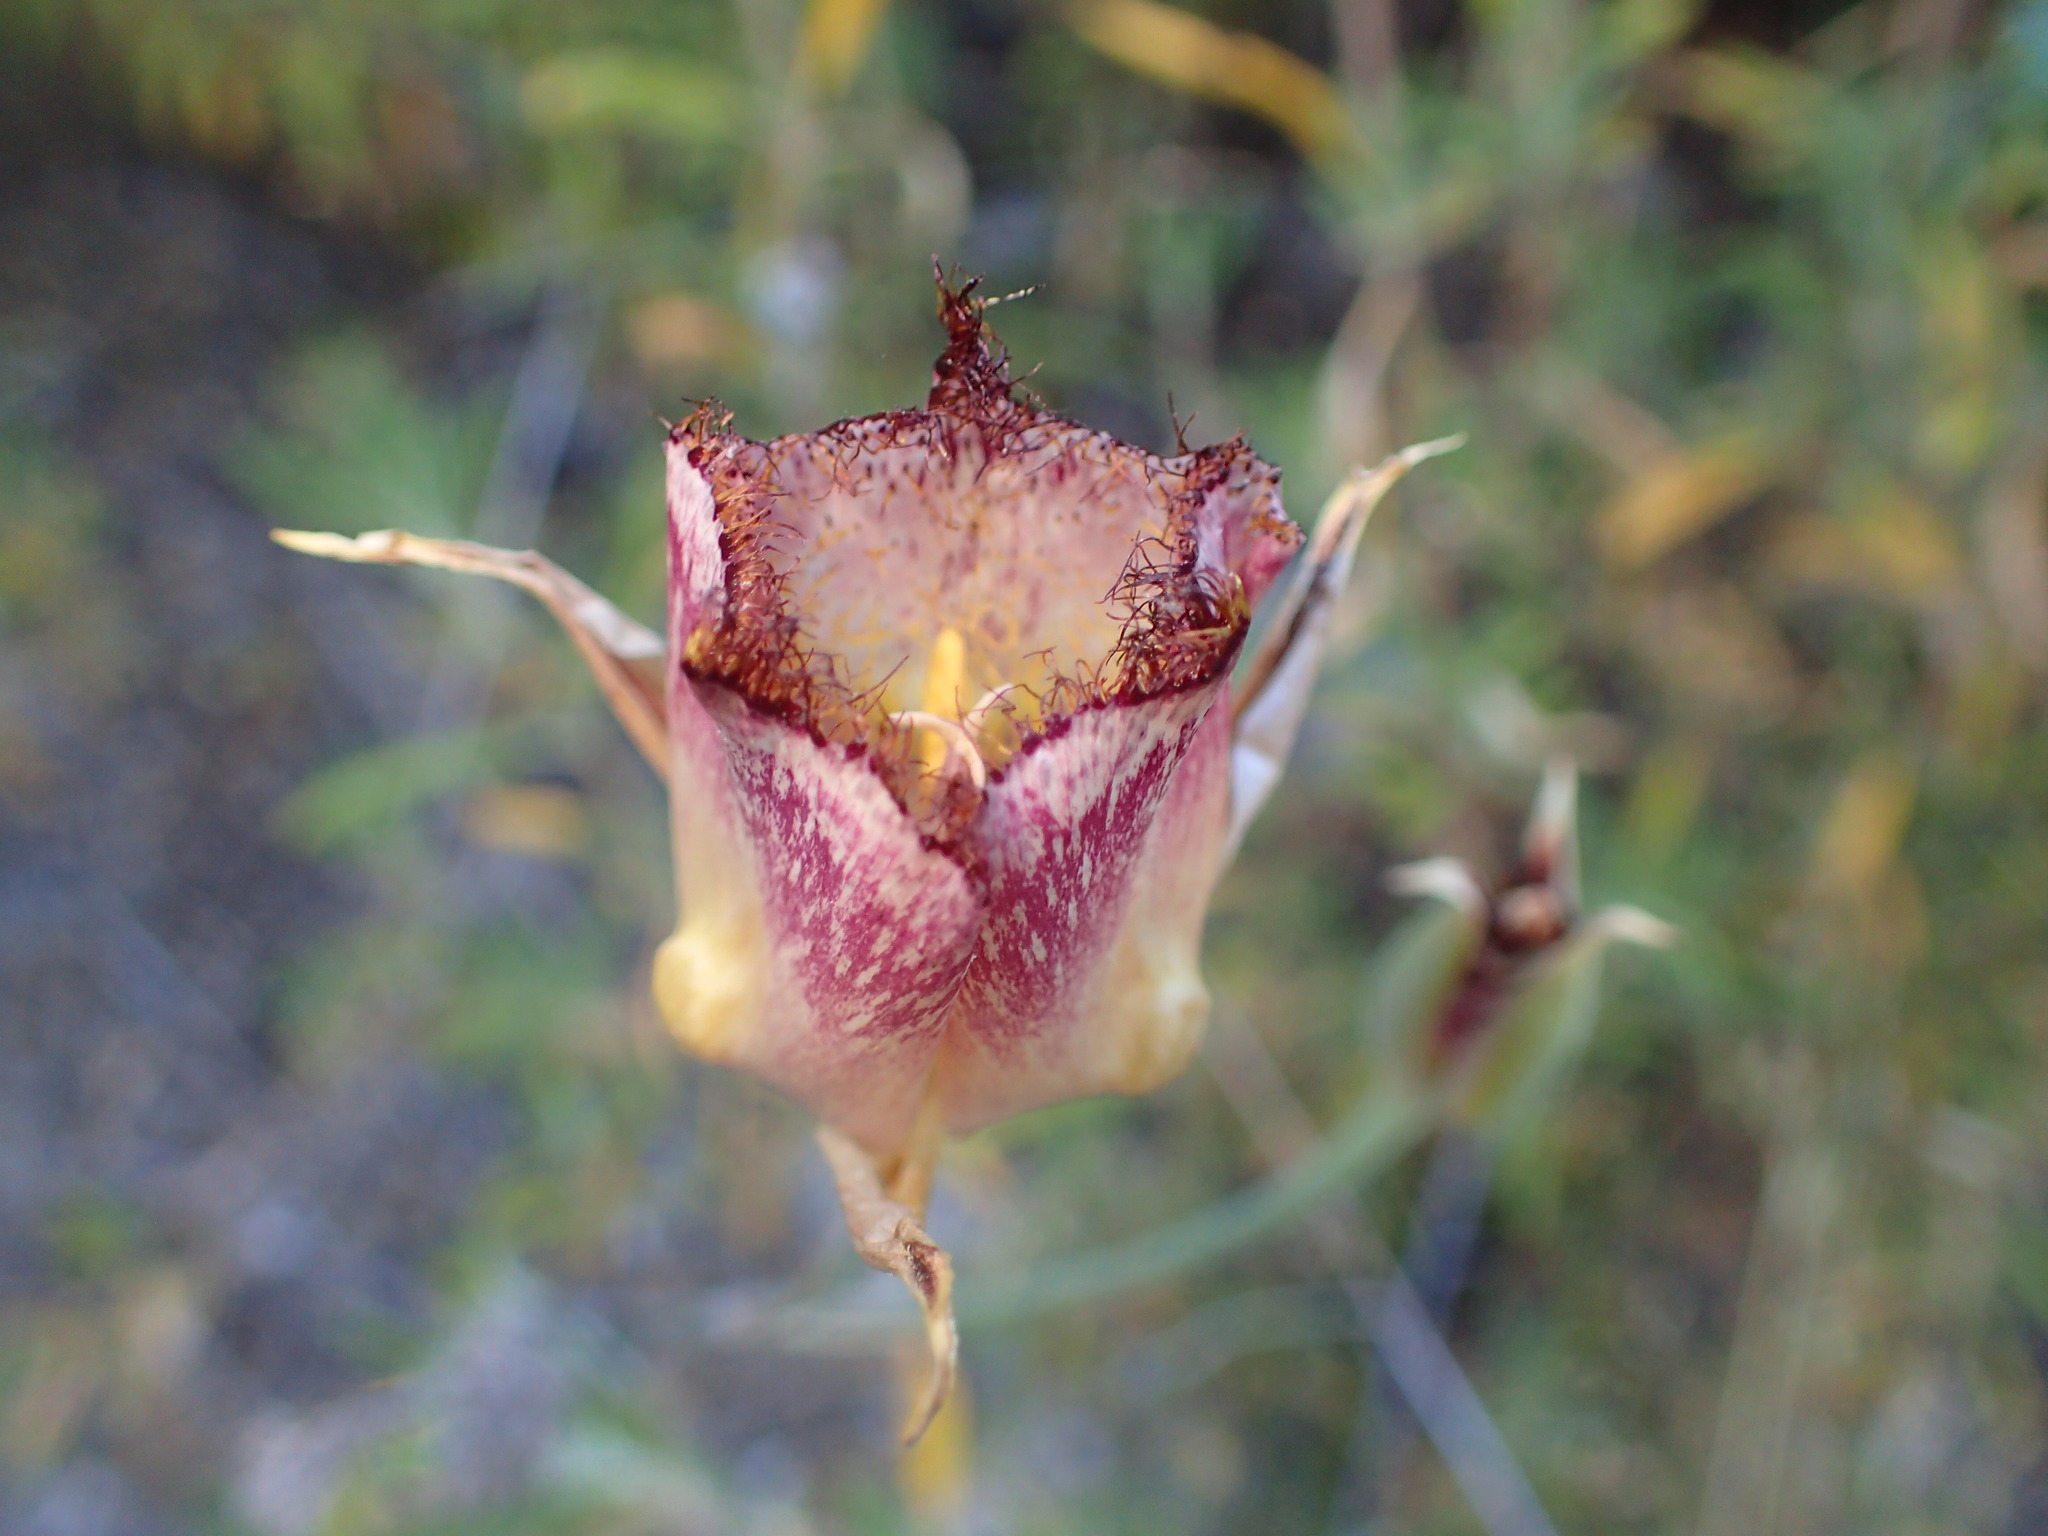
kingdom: Plantae
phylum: Tracheophyta
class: Liliopsida
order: Liliales
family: Liliaceae
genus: Calochortus
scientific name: Calochortus fimbriatus
